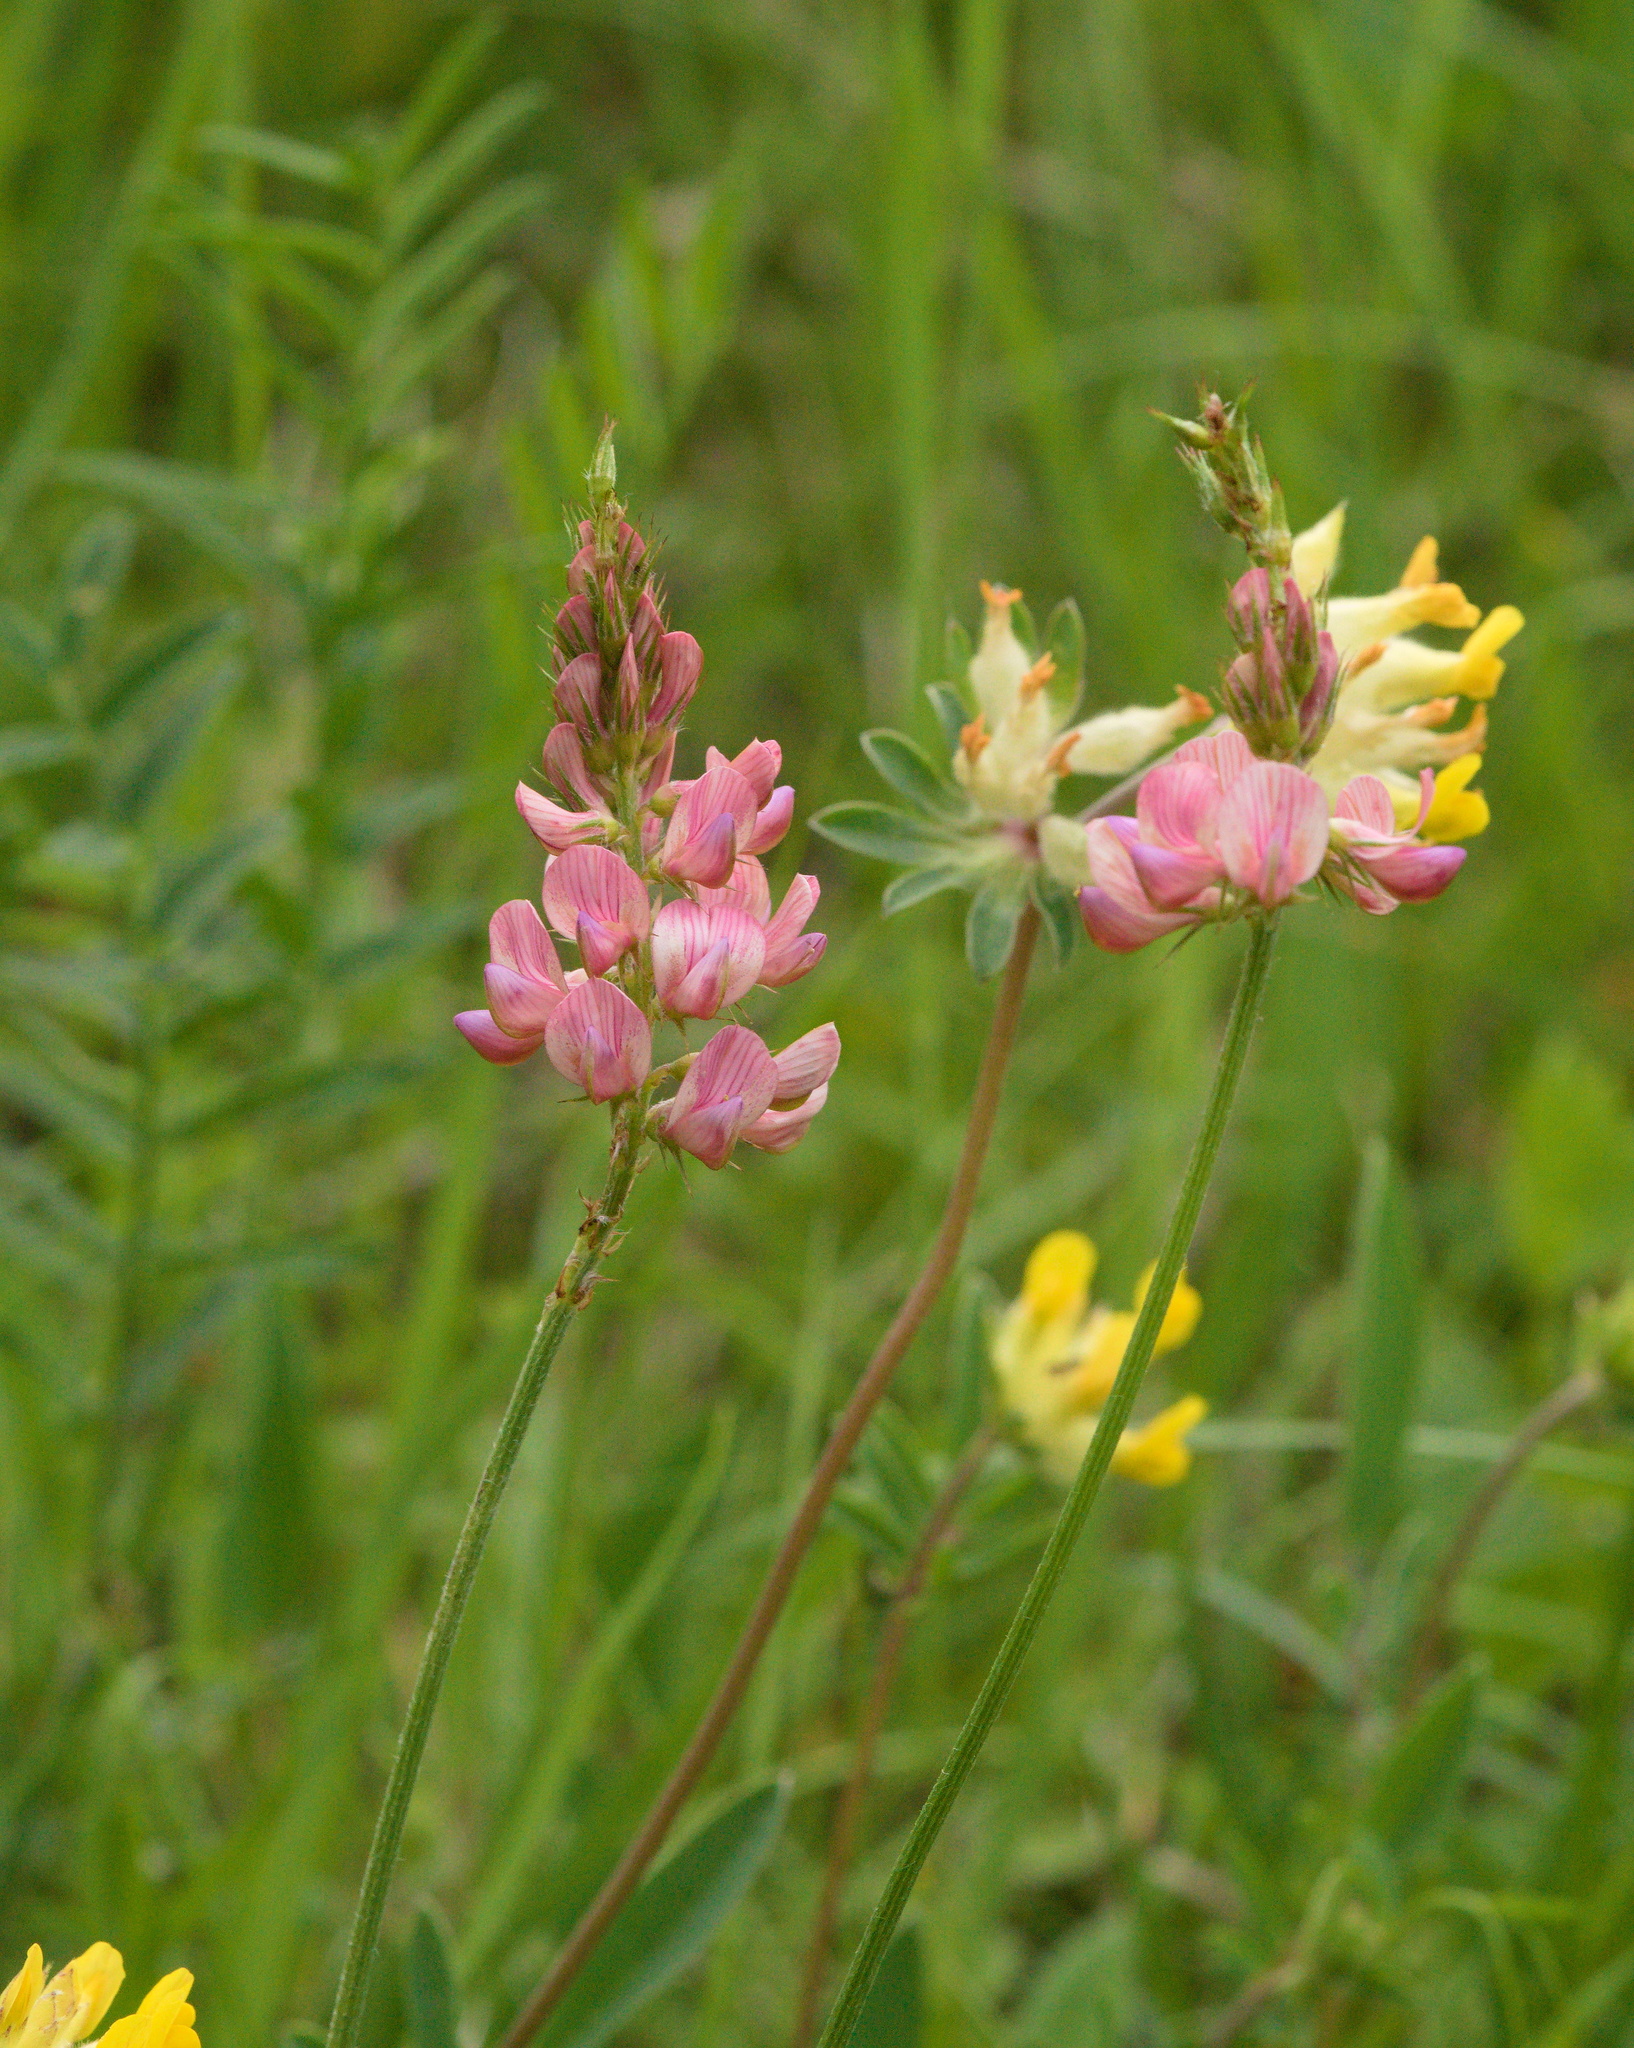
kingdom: Plantae
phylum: Tracheophyta
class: Magnoliopsida
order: Fabales
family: Fabaceae
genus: Onobrychis
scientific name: Onobrychis viciifolia
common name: Sainfoin
